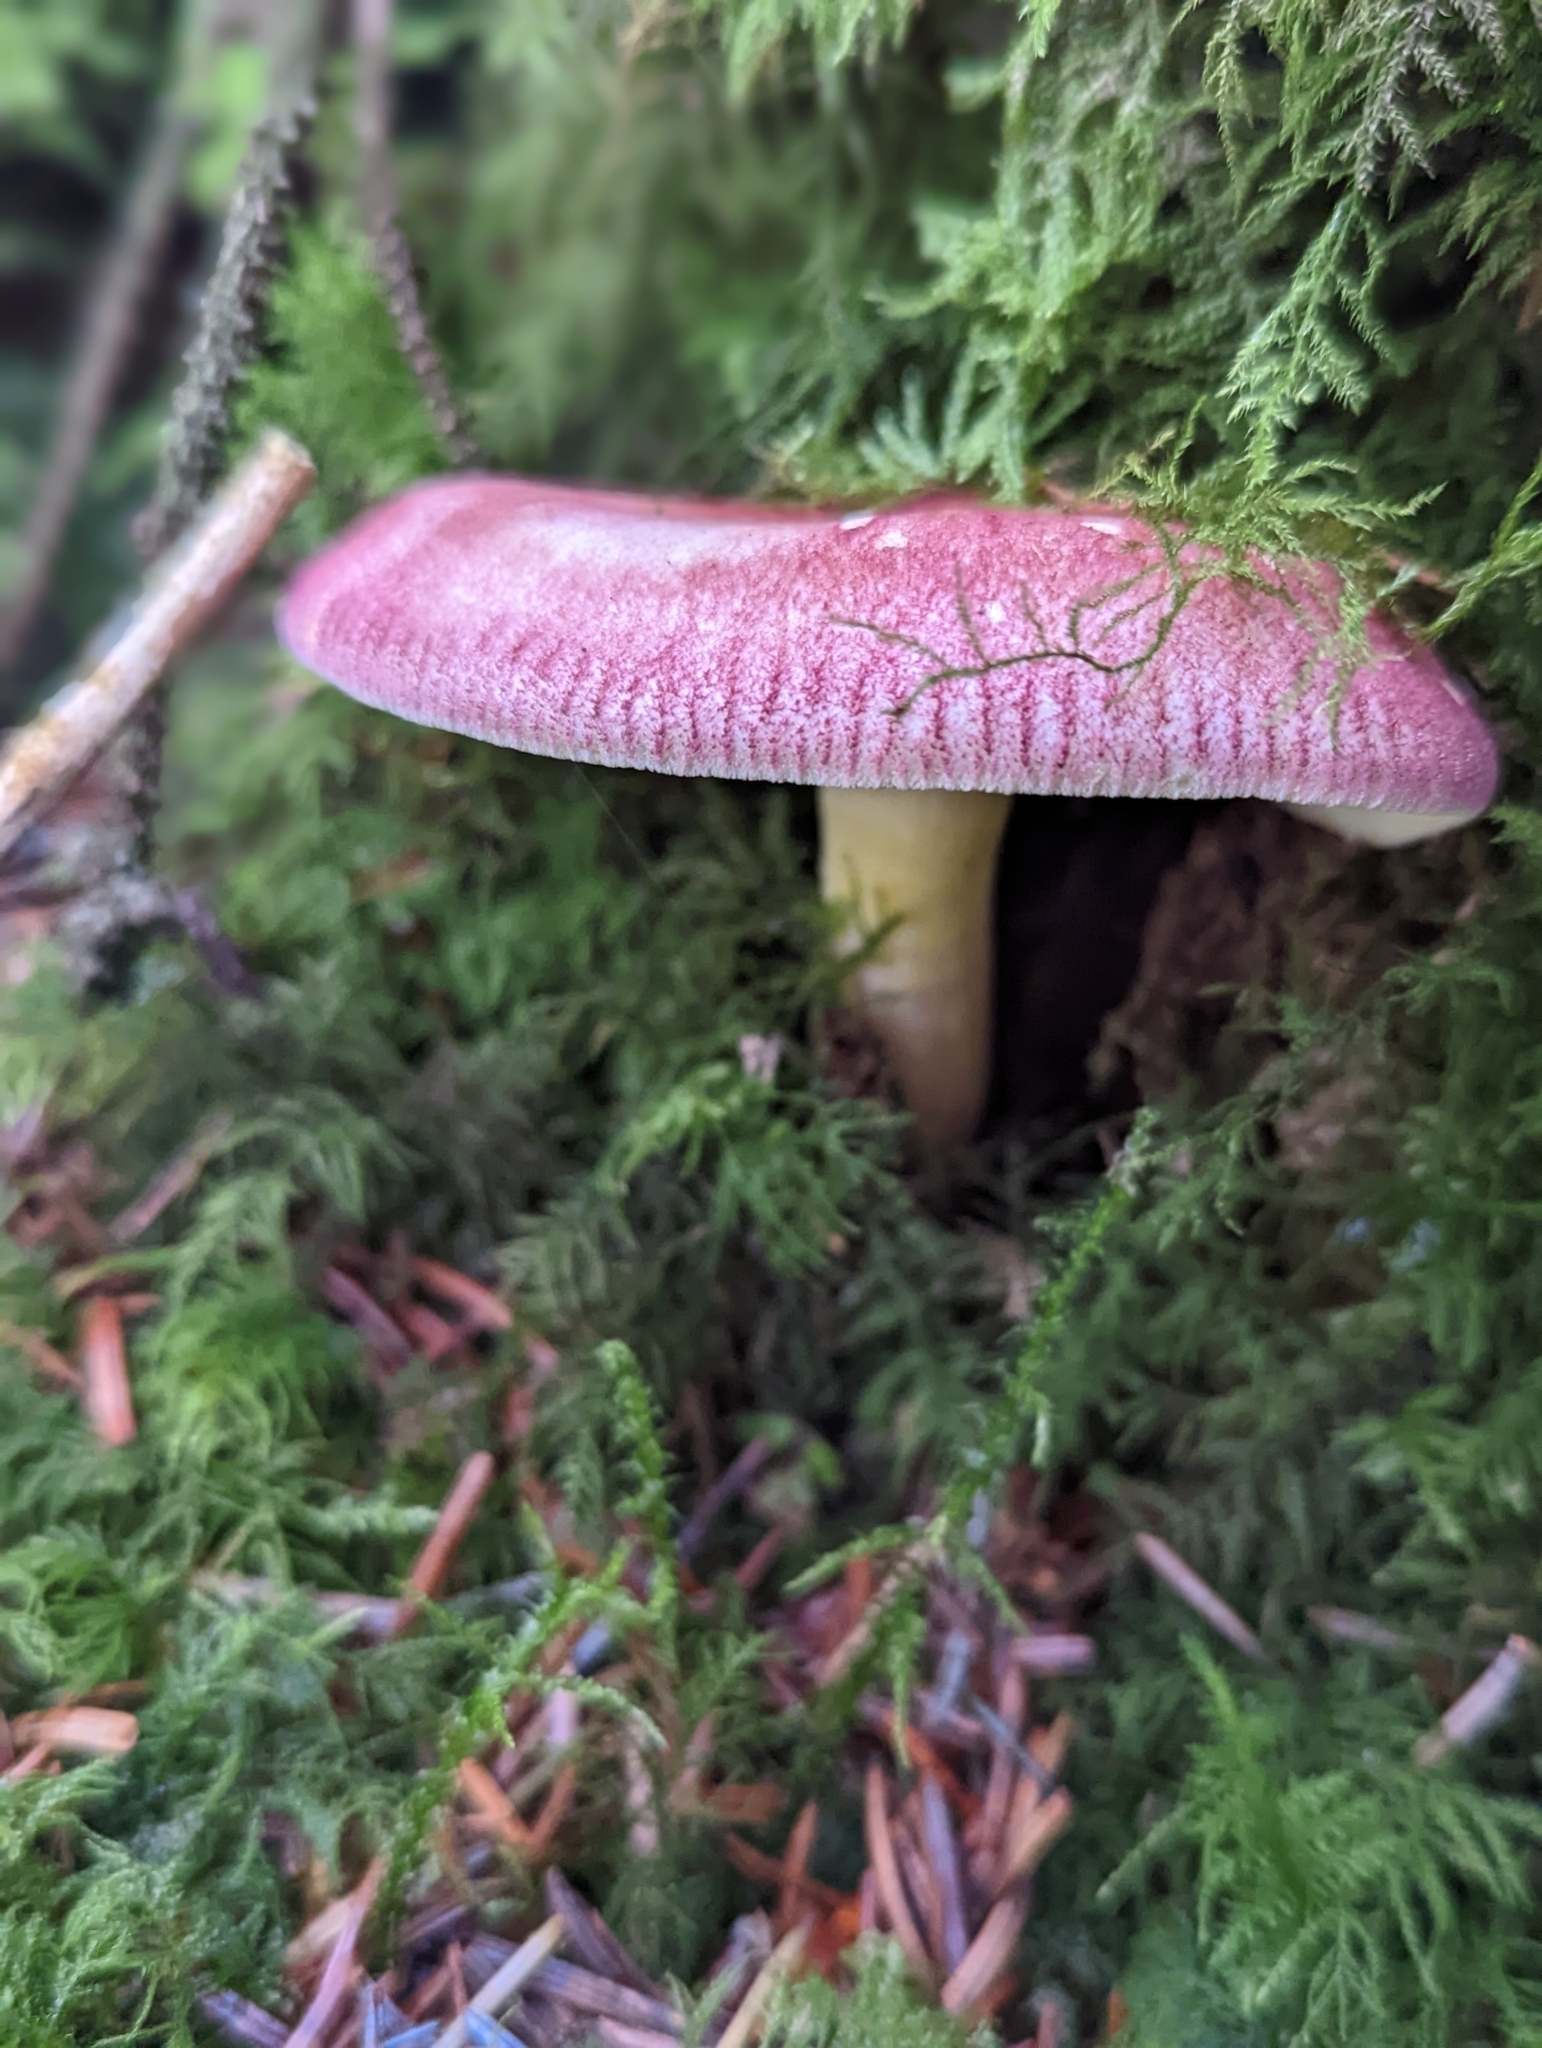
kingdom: Fungi
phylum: Basidiomycota
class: Agaricomycetes
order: Agaricales
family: Tricholomataceae
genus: Tricholomopsis
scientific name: Tricholomopsis rutilans
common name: Plums and custard
